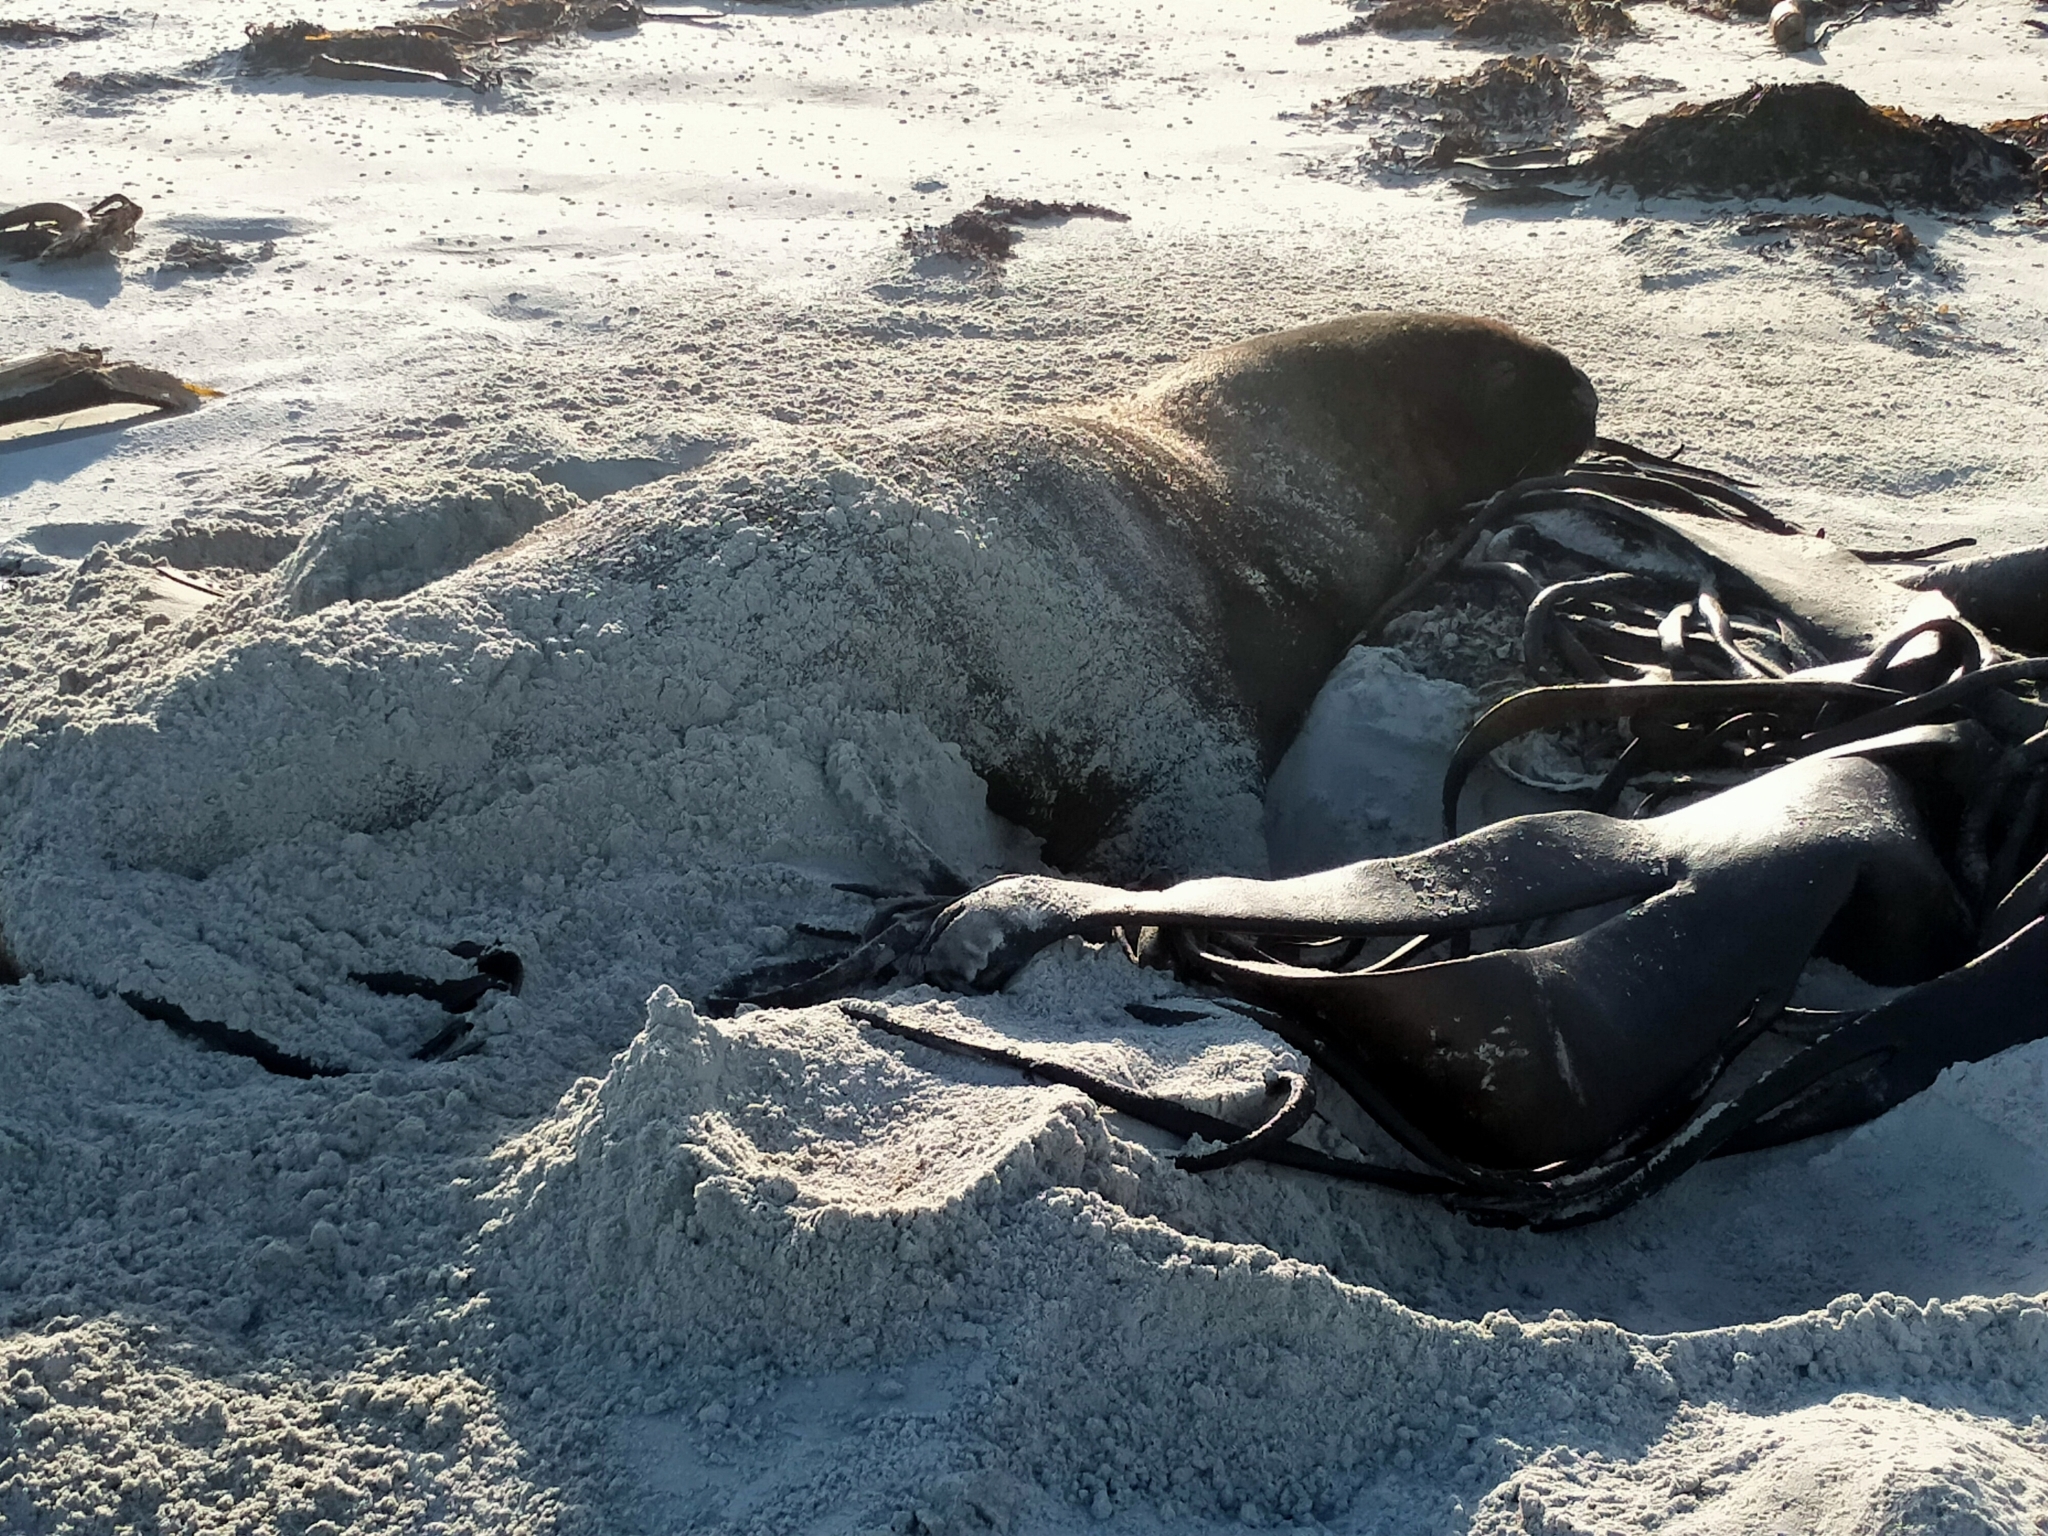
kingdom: Animalia
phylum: Chordata
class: Mammalia
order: Carnivora
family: Otariidae
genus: Phocarctos
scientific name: Phocarctos hookeri
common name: New zealand sea lion
